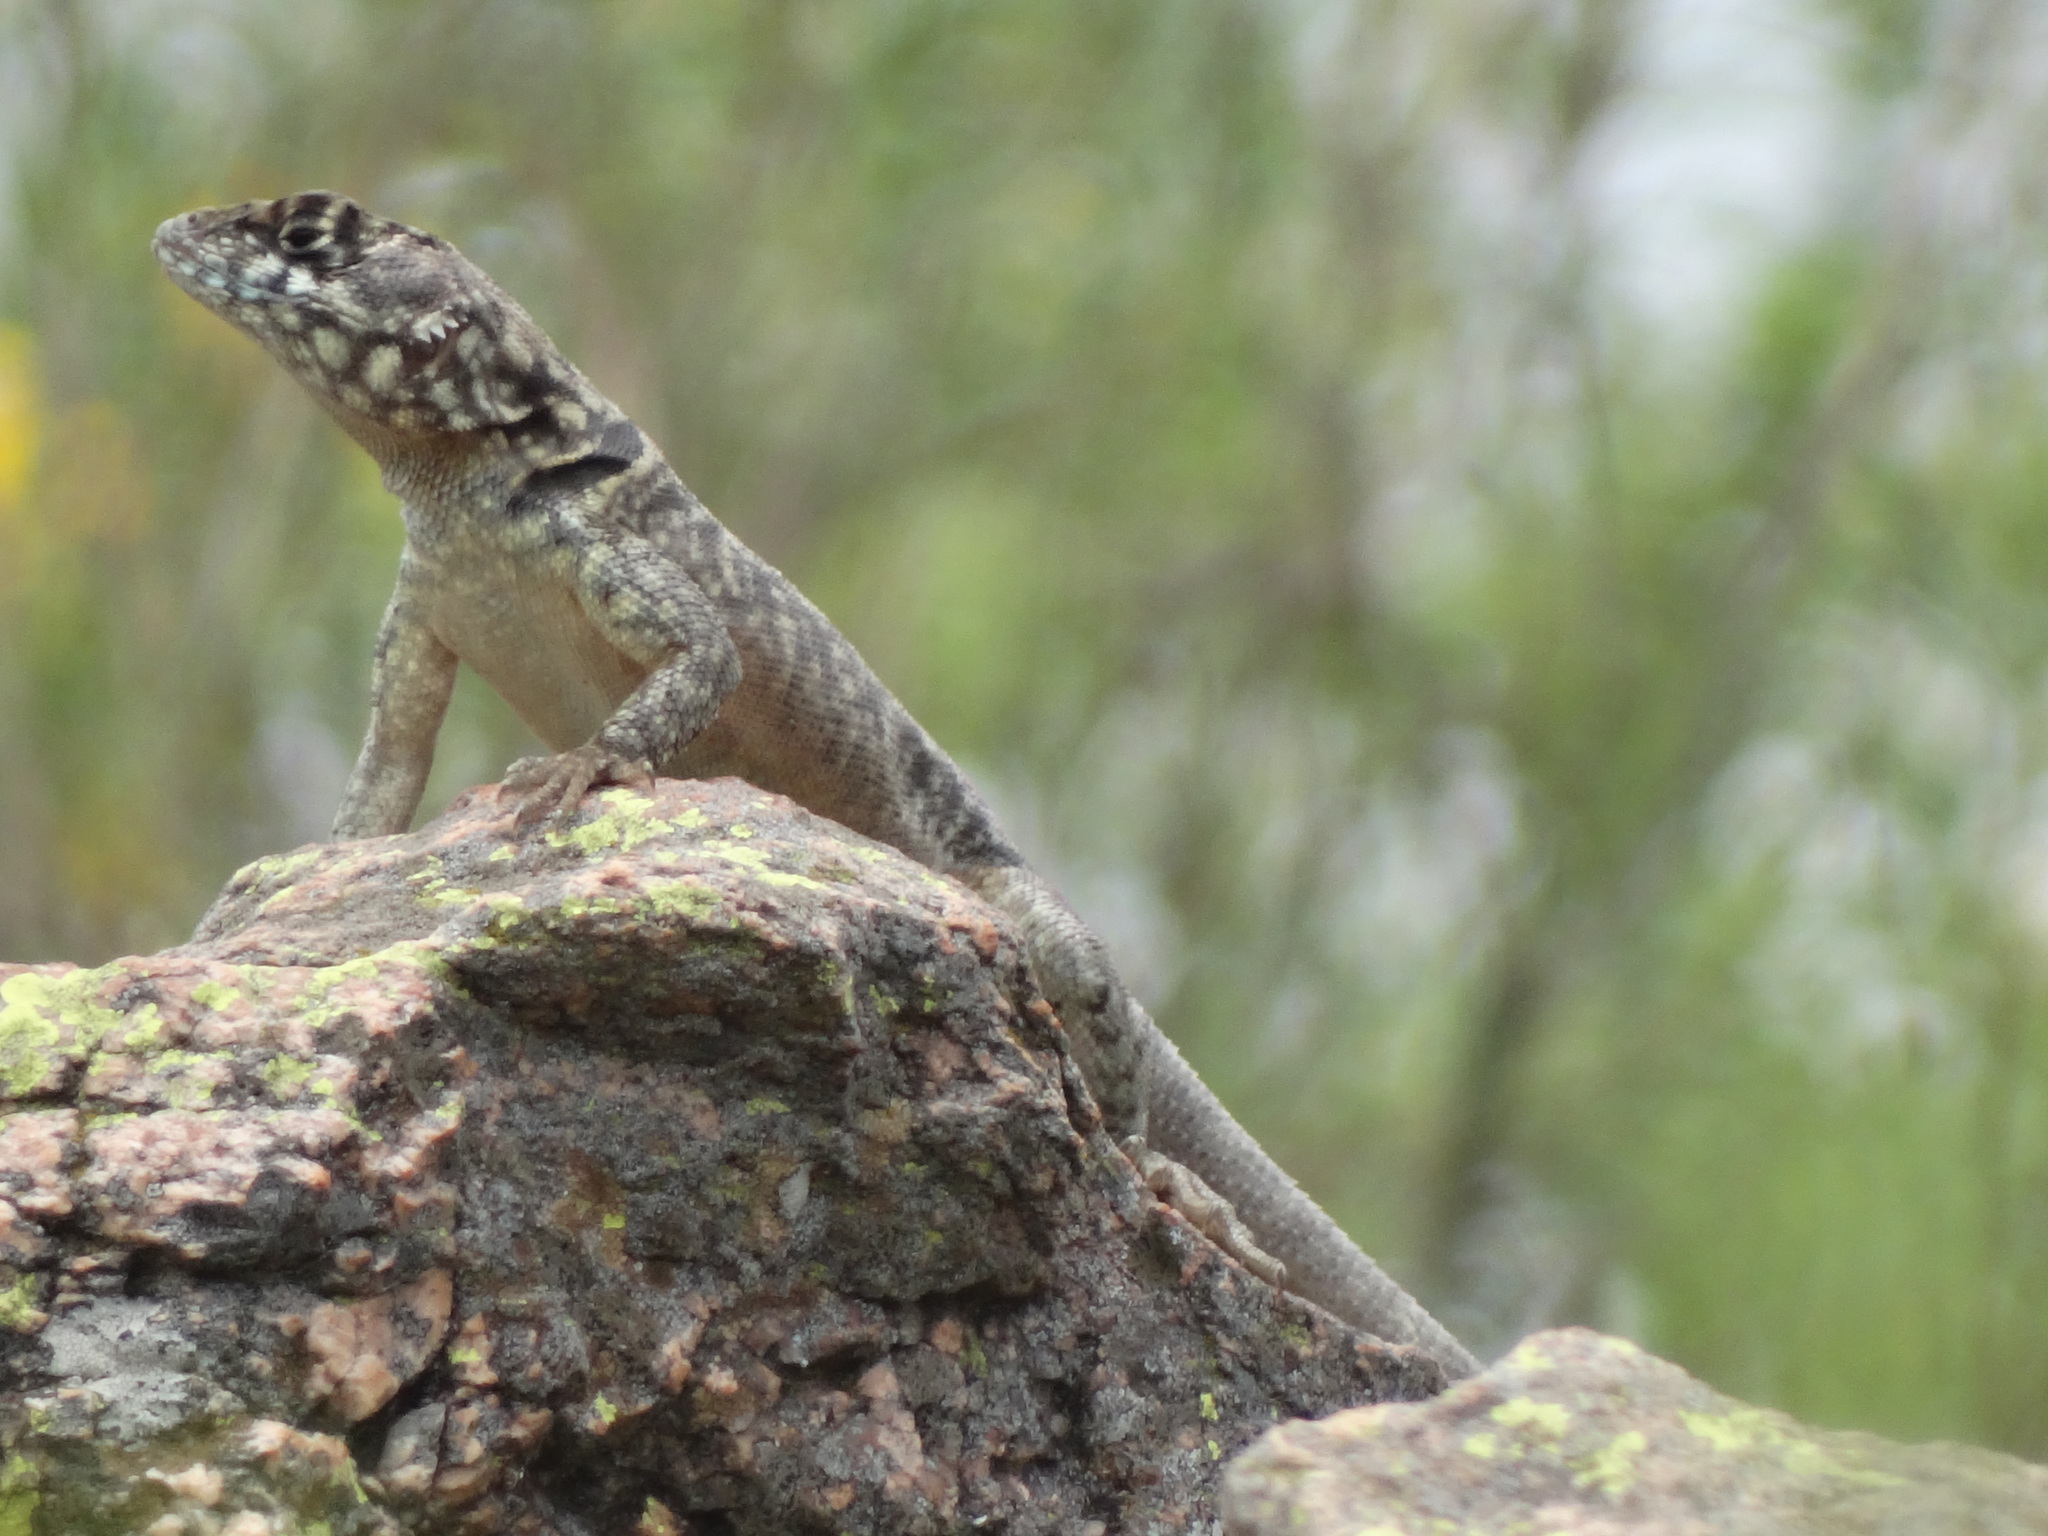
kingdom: Animalia
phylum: Chordata
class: Squamata
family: Tropiduridae
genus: Tropidurus
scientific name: Tropidurus etheridgei
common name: Etheridge's lava lizard
